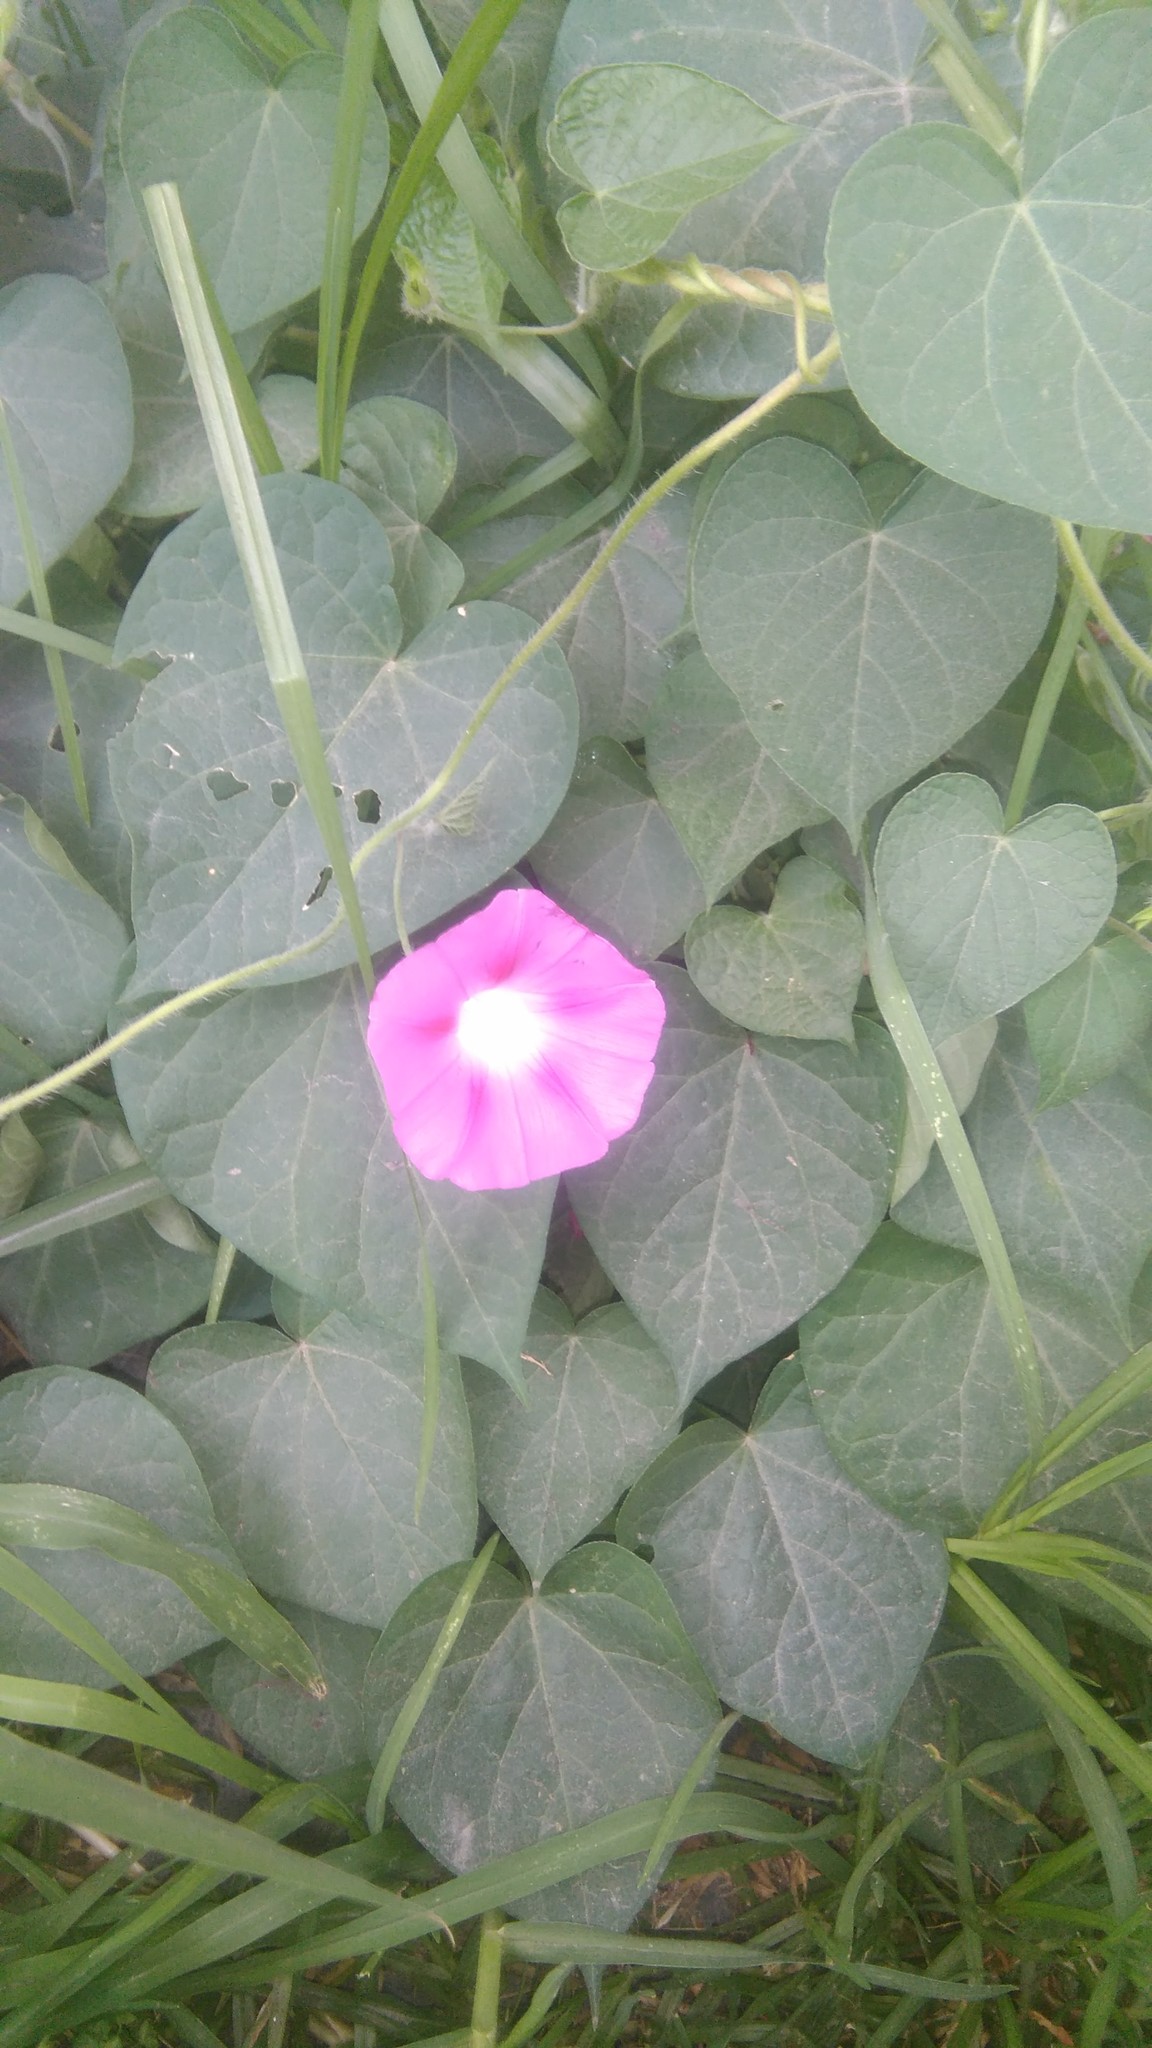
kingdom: Plantae
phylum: Tracheophyta
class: Magnoliopsida
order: Solanales
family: Convolvulaceae
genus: Ipomoea
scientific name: Ipomoea purpurea
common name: Common morning-glory
